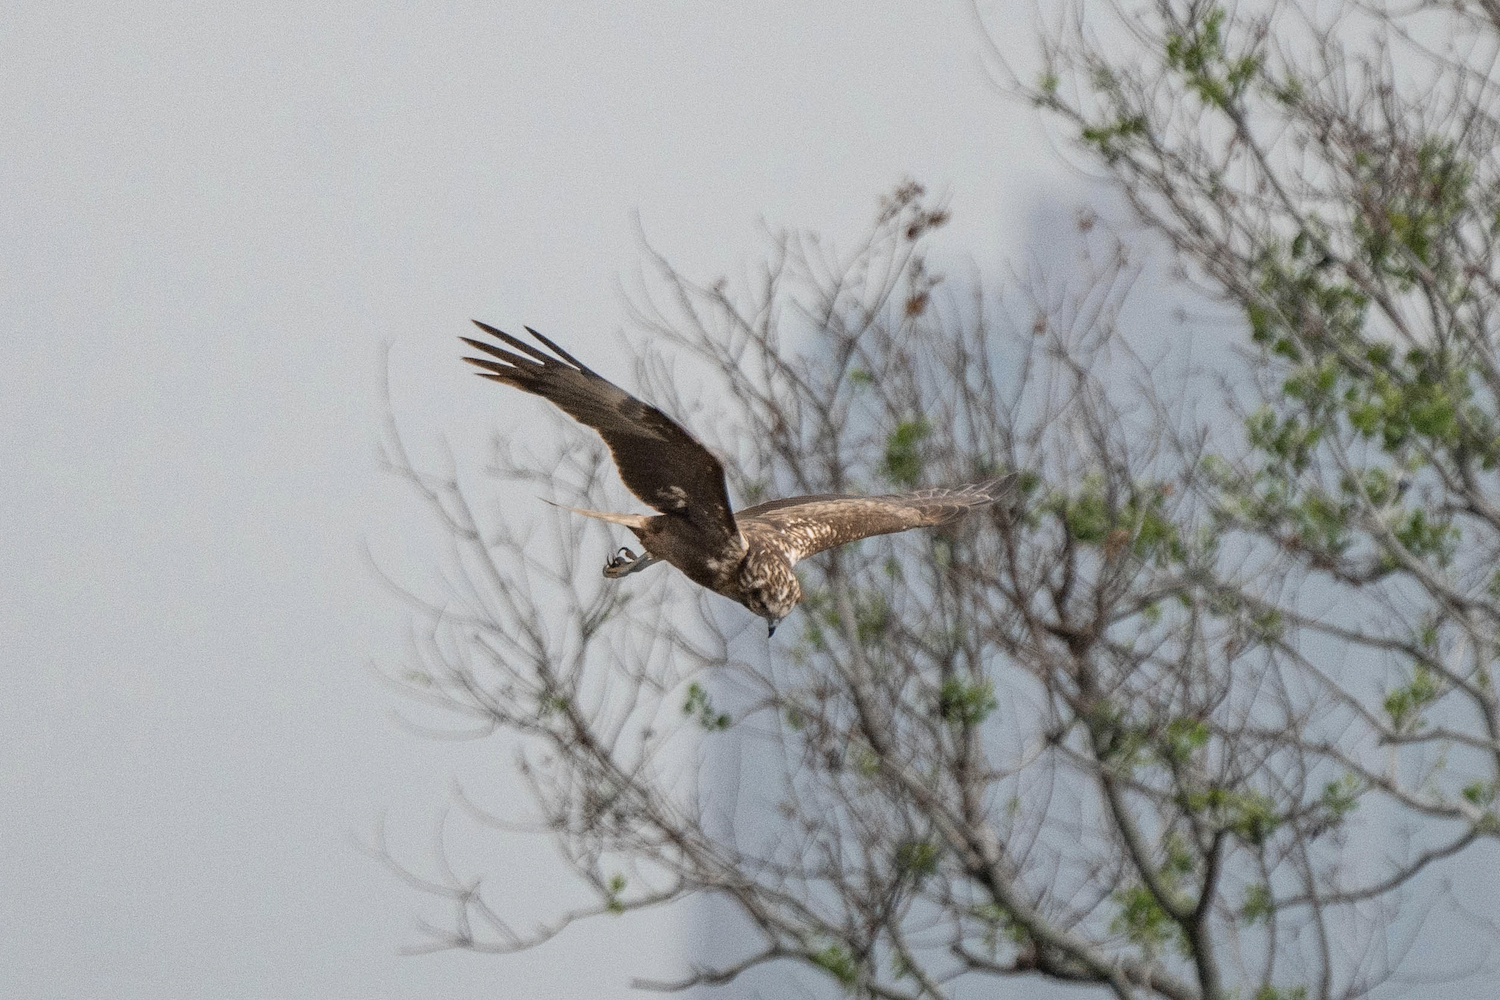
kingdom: Animalia
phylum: Chordata
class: Aves
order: Accipitriformes
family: Accipitridae
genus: Circus
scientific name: Circus spilonotus
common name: Eastern marsh-harrier
